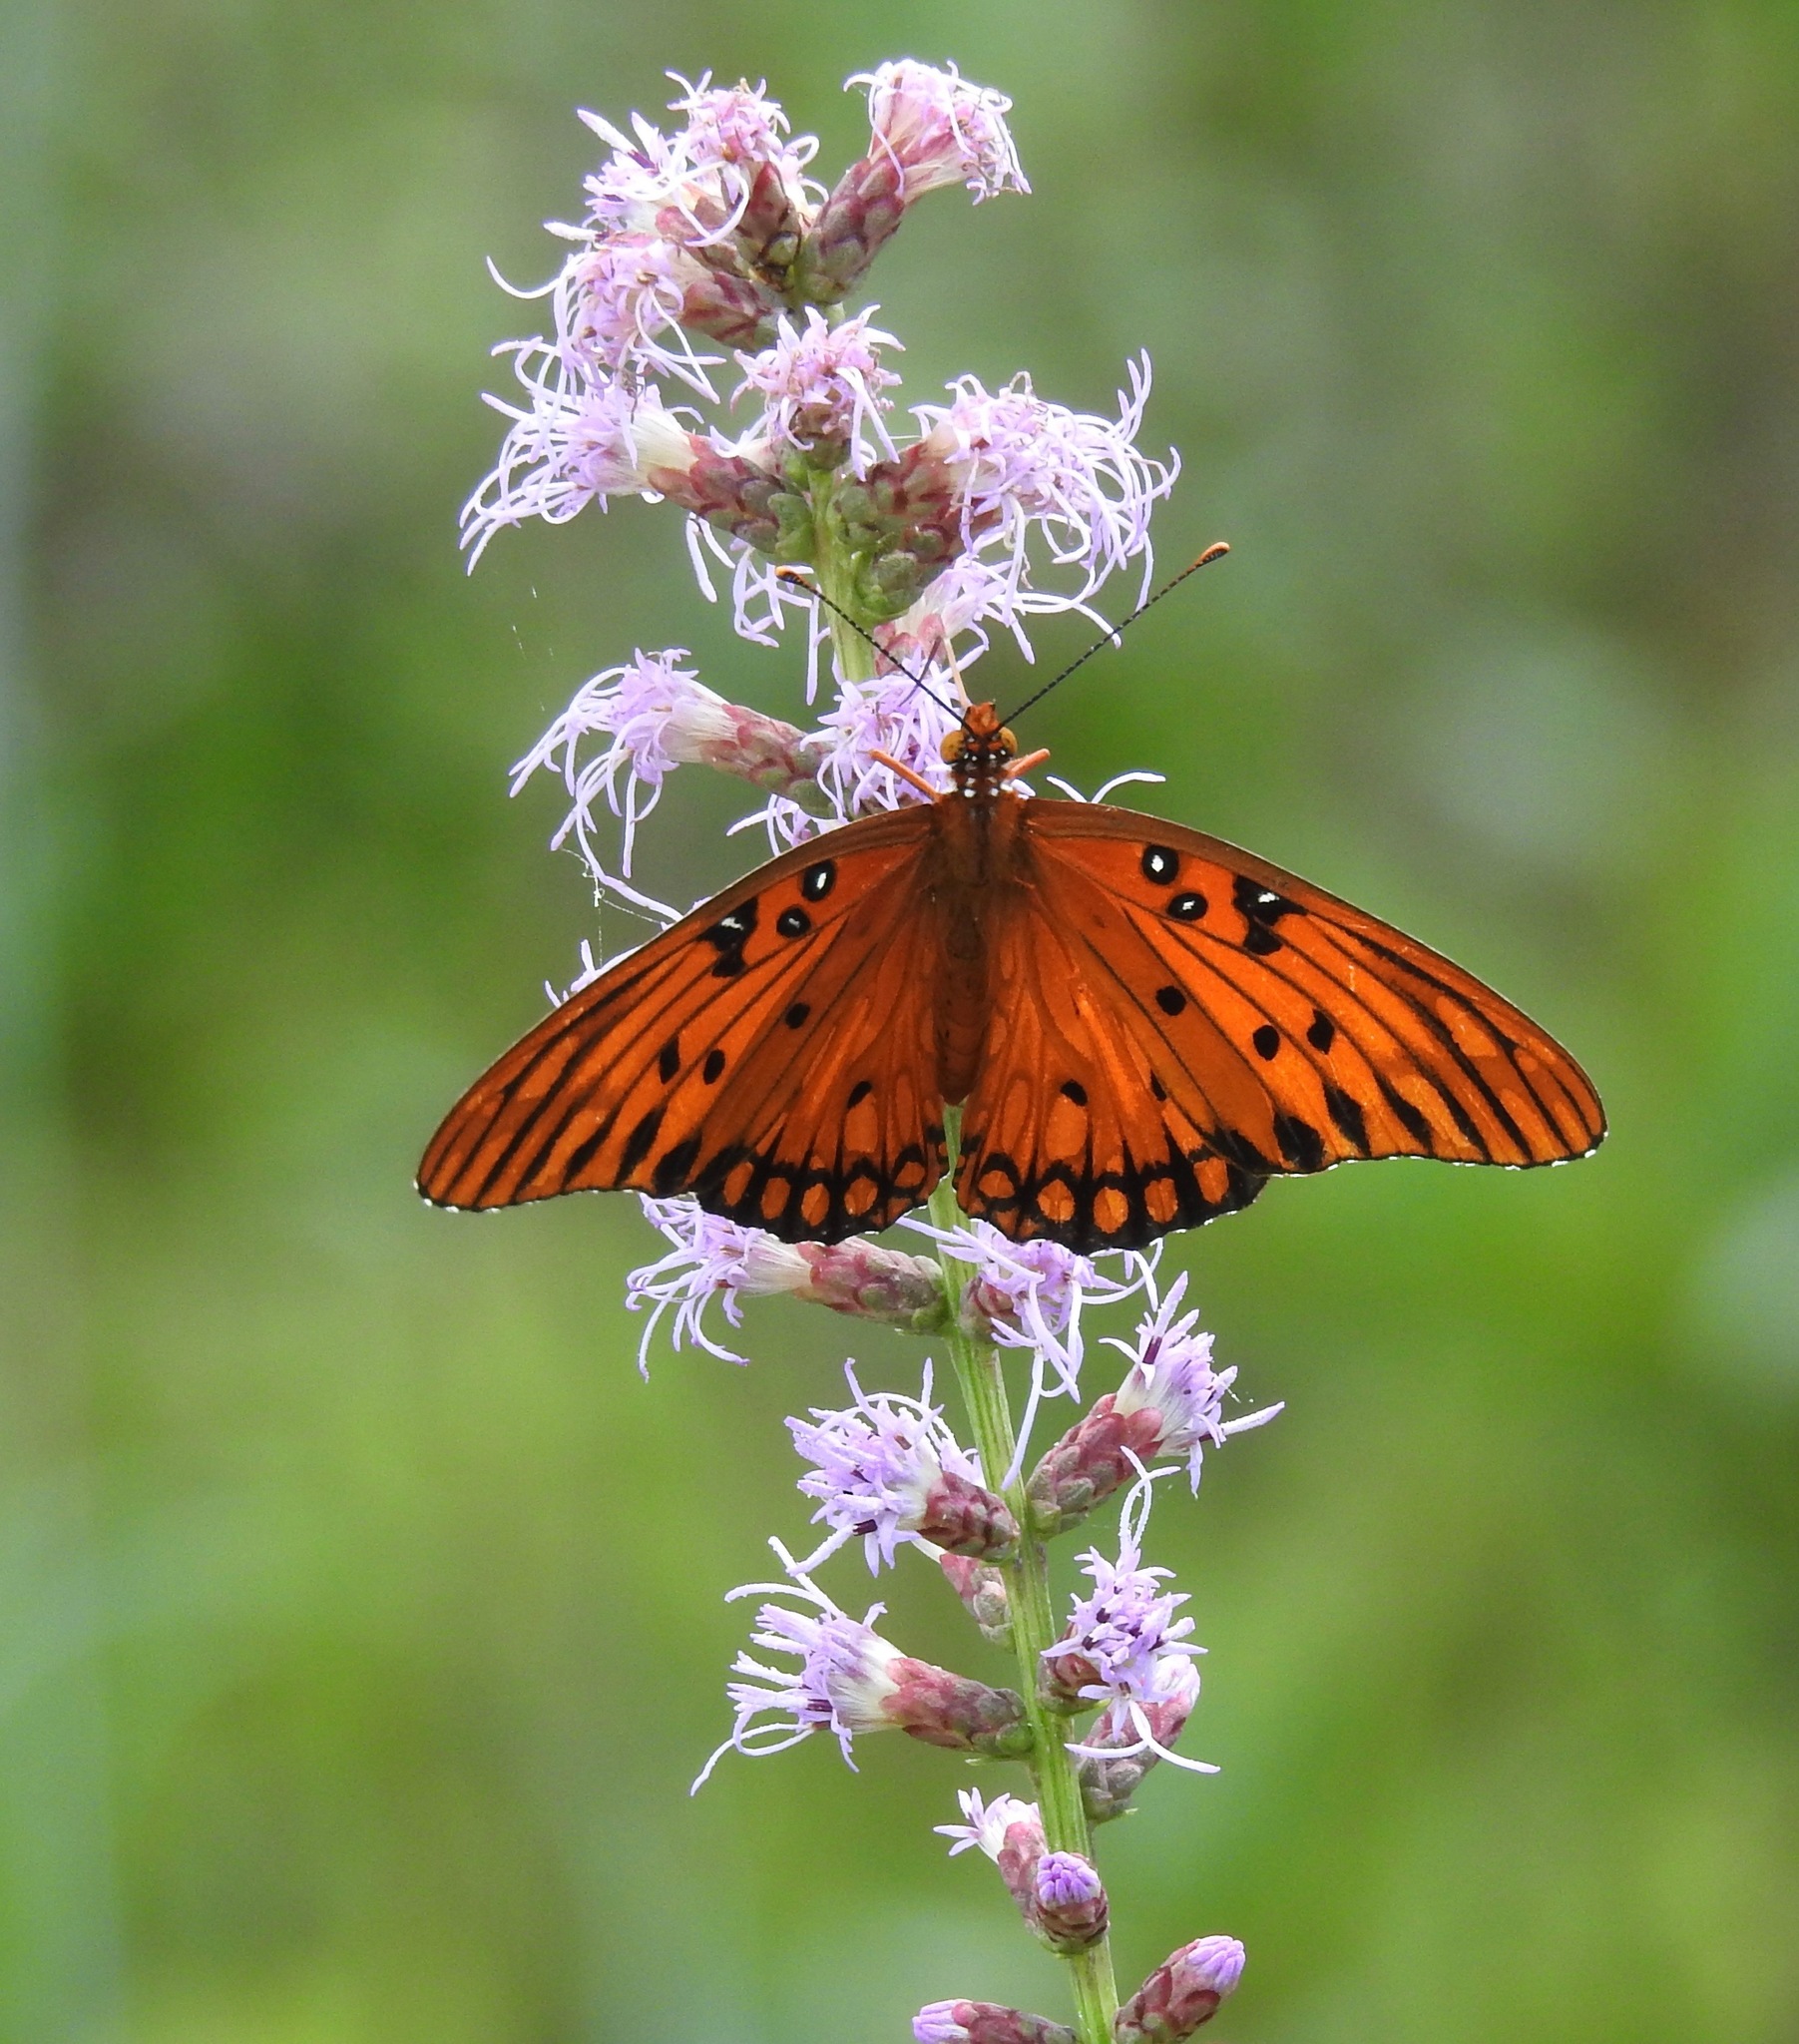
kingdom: Animalia
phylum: Arthropoda
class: Insecta
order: Lepidoptera
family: Nymphalidae
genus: Dione
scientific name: Dione vanillae
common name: Gulf fritillary
